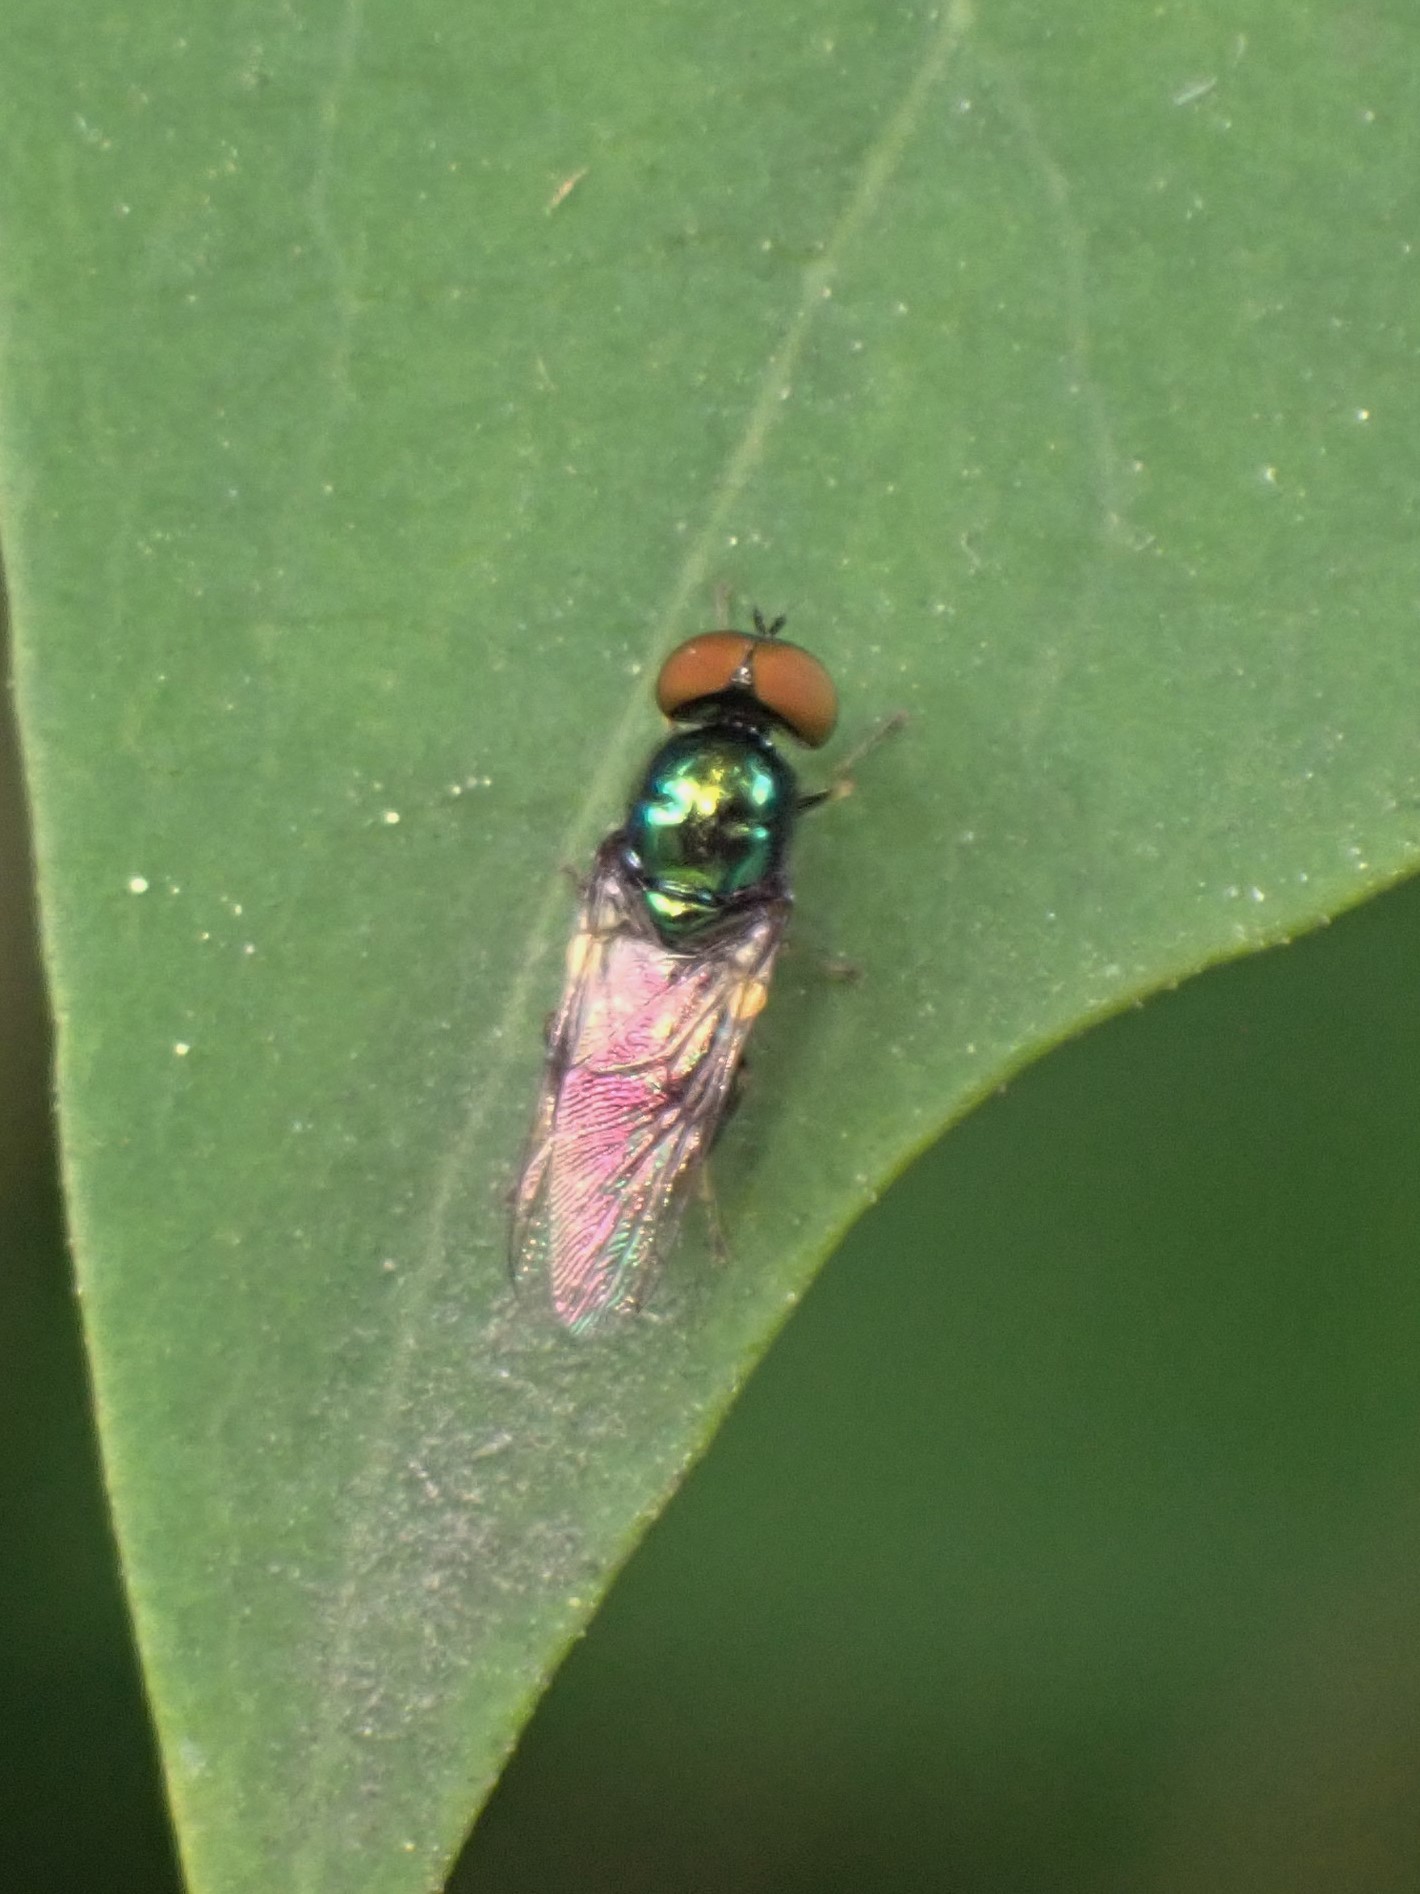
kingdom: Animalia
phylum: Arthropoda
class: Insecta
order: Diptera
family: Stratiomyidae
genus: Microchrysa
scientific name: Microchrysa polita
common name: Black-horned gem
